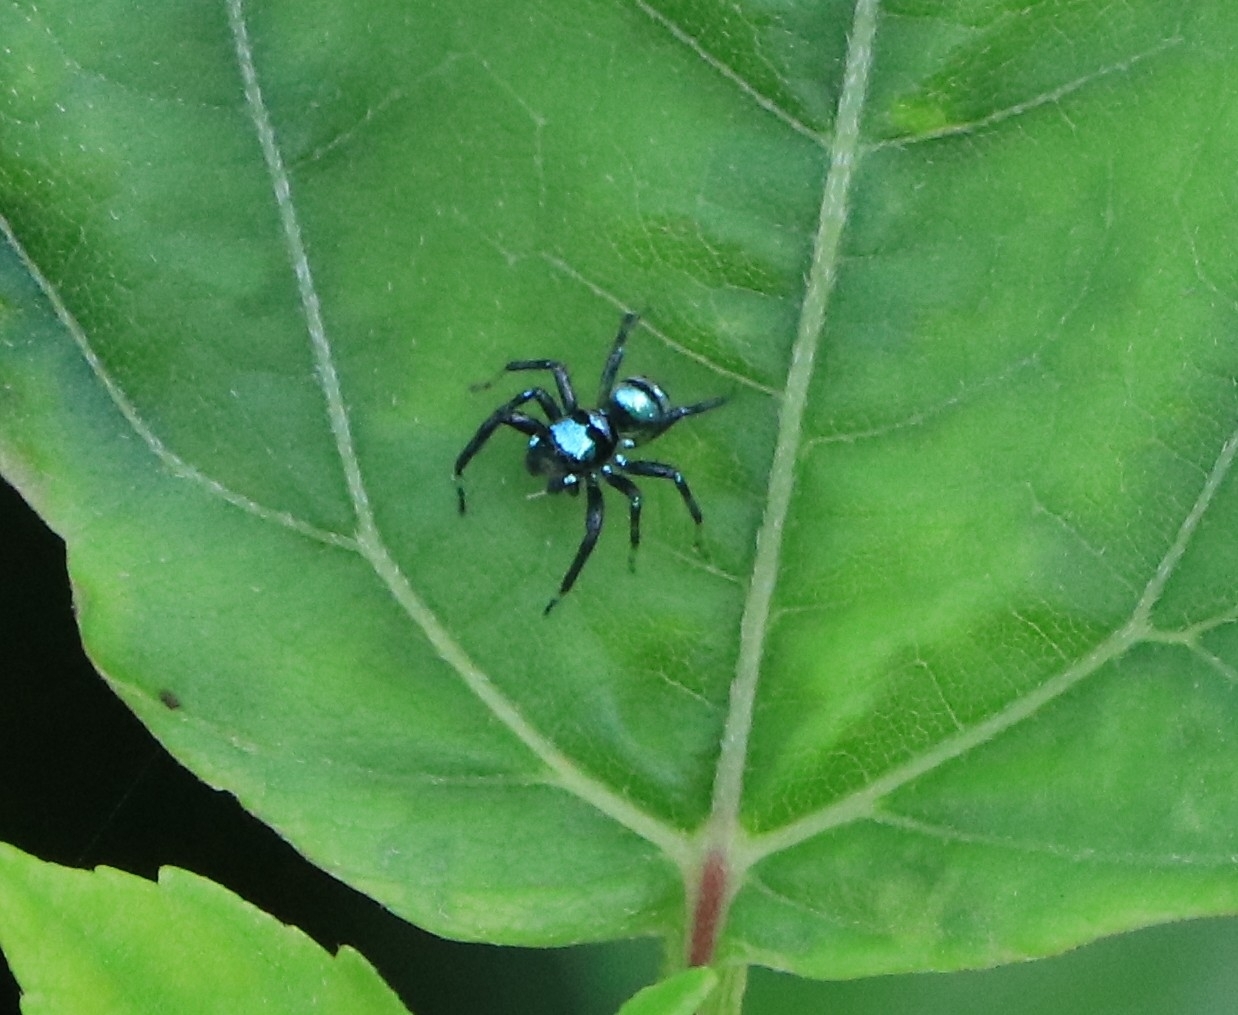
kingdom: Animalia
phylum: Arthropoda
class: Arachnida
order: Araneae
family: Salticidae
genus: Phintella
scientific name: Phintella vittata
